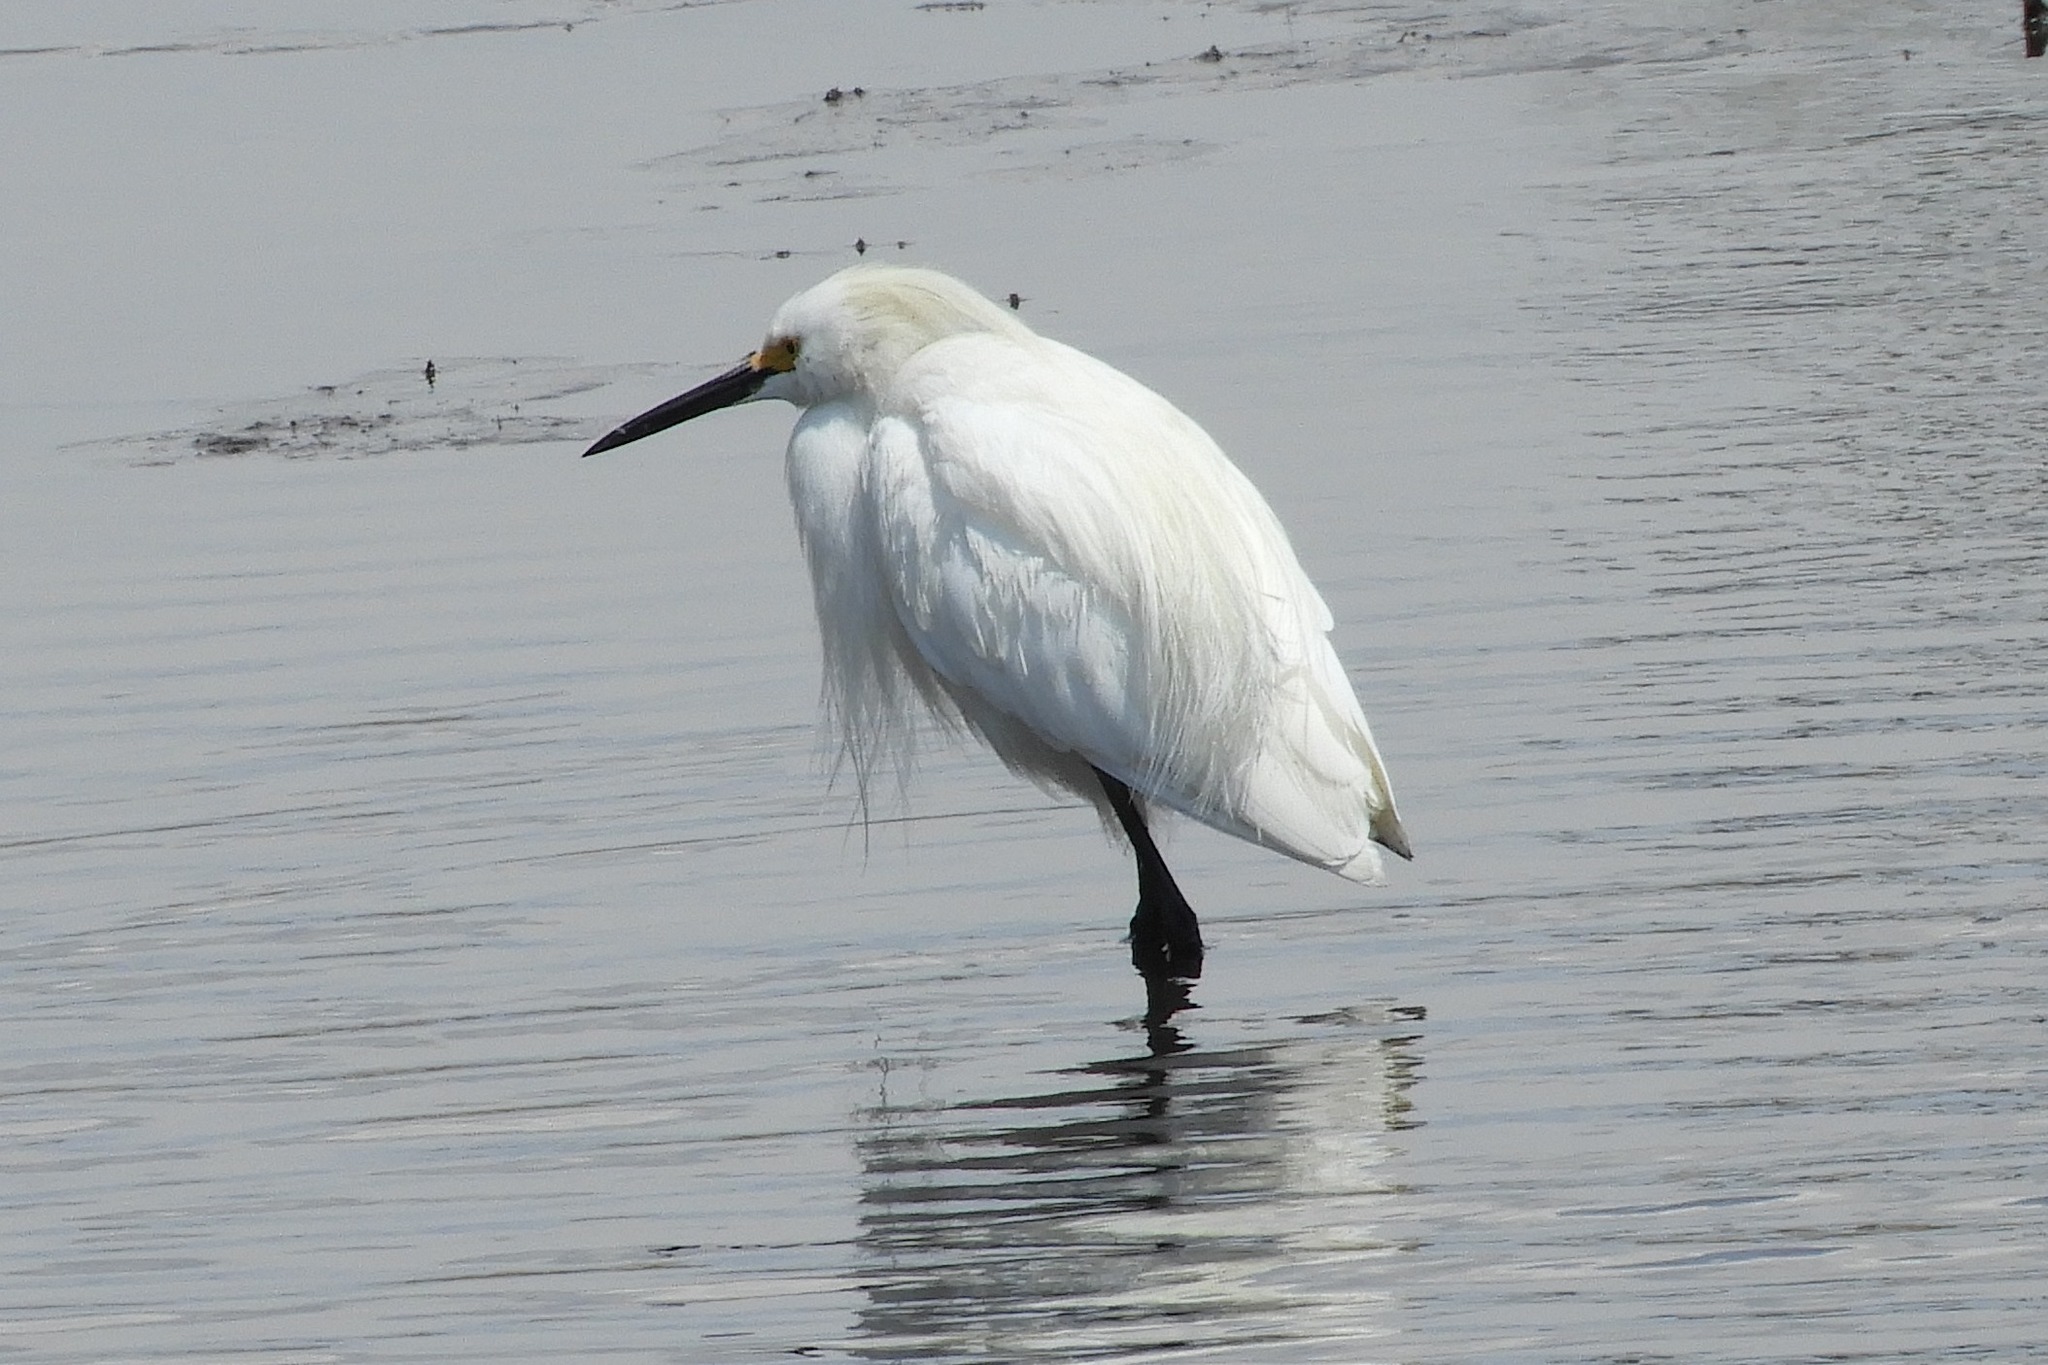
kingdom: Animalia
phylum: Chordata
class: Aves
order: Pelecaniformes
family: Ardeidae
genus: Egretta
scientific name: Egretta thula
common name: Snowy egret
